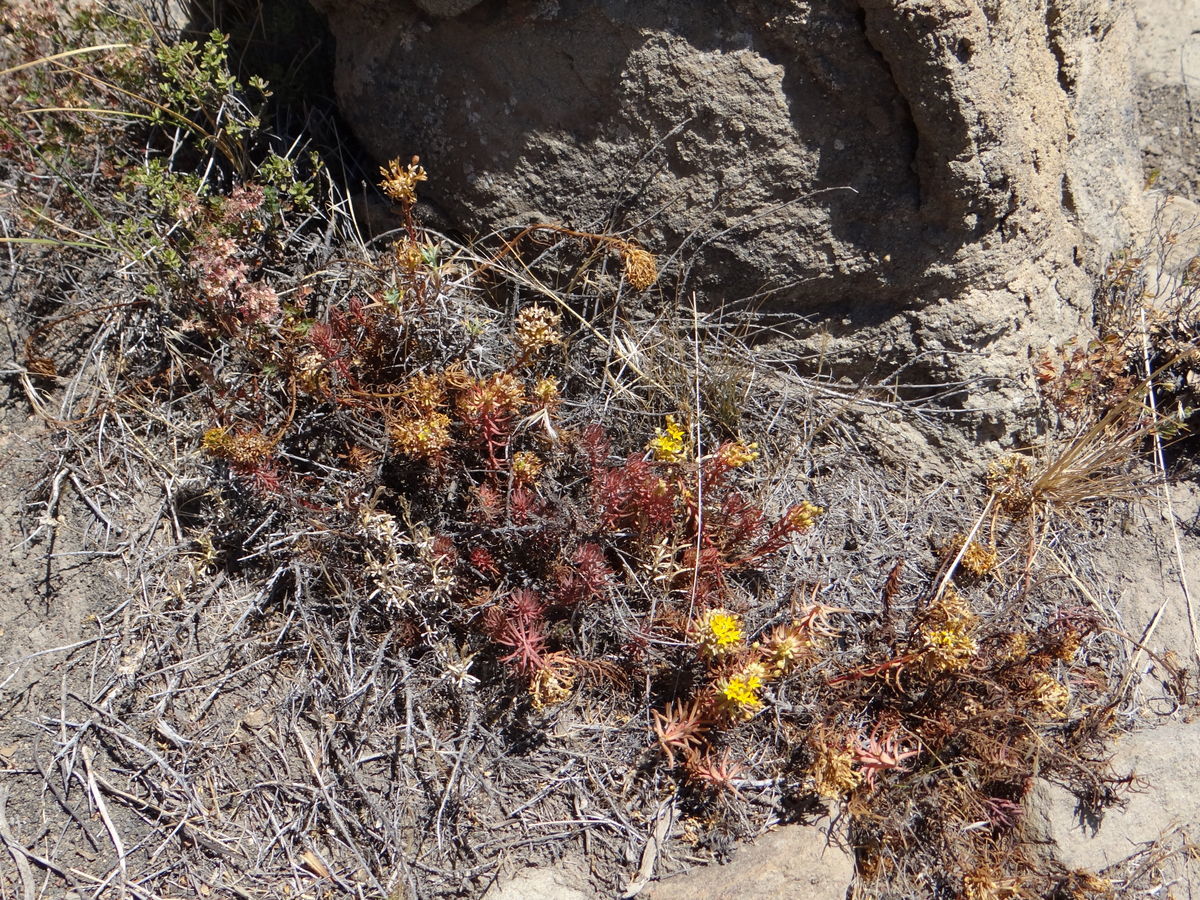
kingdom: Plantae
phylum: Tracheophyta
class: Magnoliopsida
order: Santalales
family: Schoepfiaceae
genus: Quinchamalium
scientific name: Quinchamalium chilense
